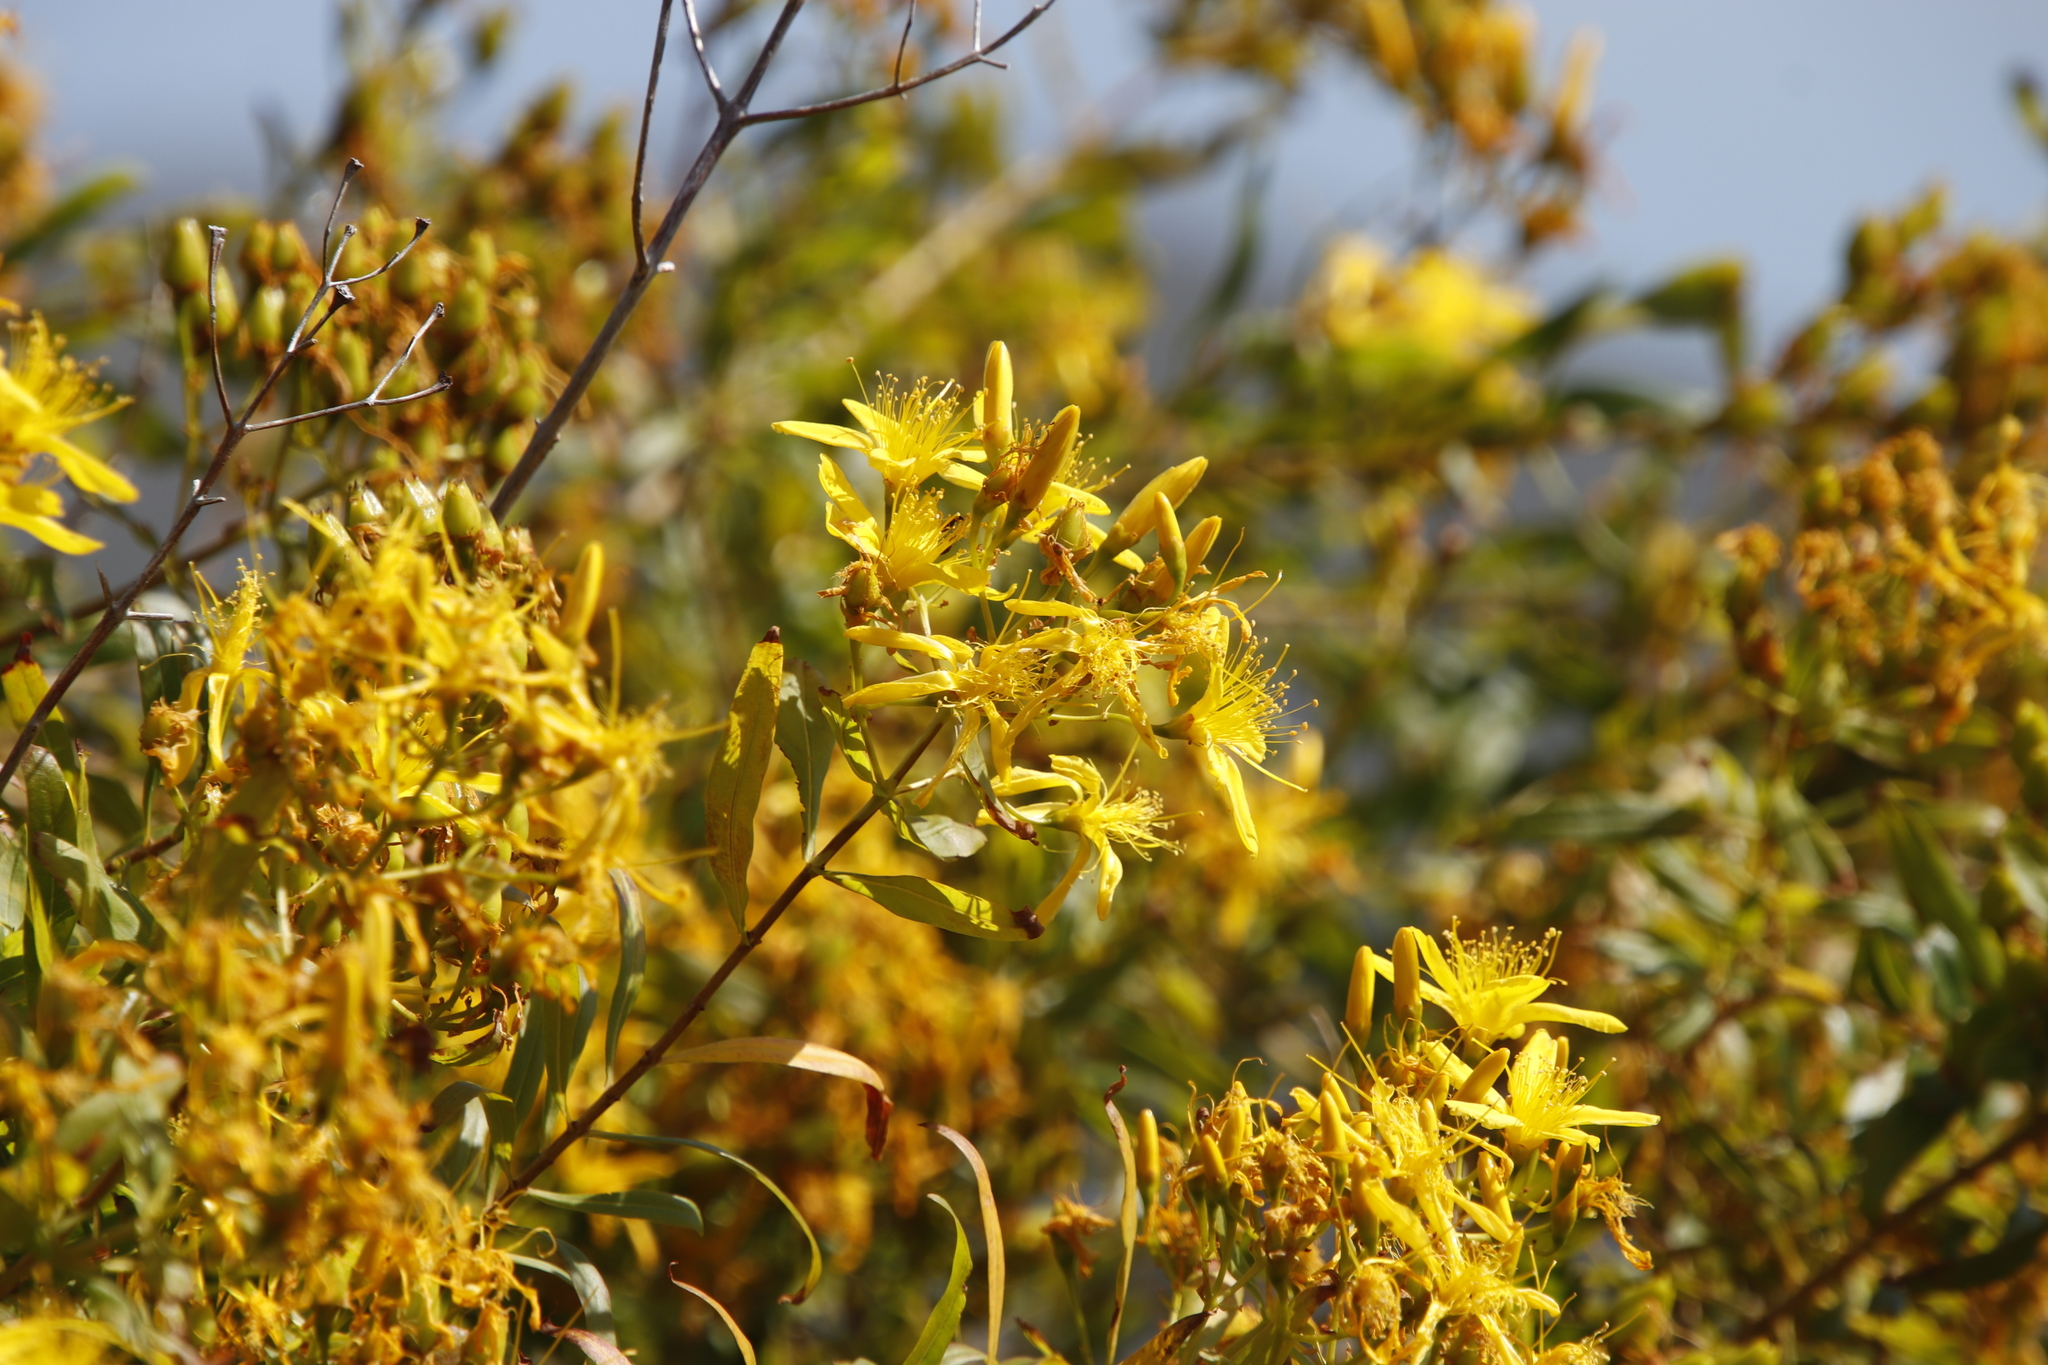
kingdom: Plantae
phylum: Tracheophyta
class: Magnoliopsida
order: Malpighiales
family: Hypericaceae
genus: Hypericum
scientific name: Hypericum canariense
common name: Canary island st. johnswort
